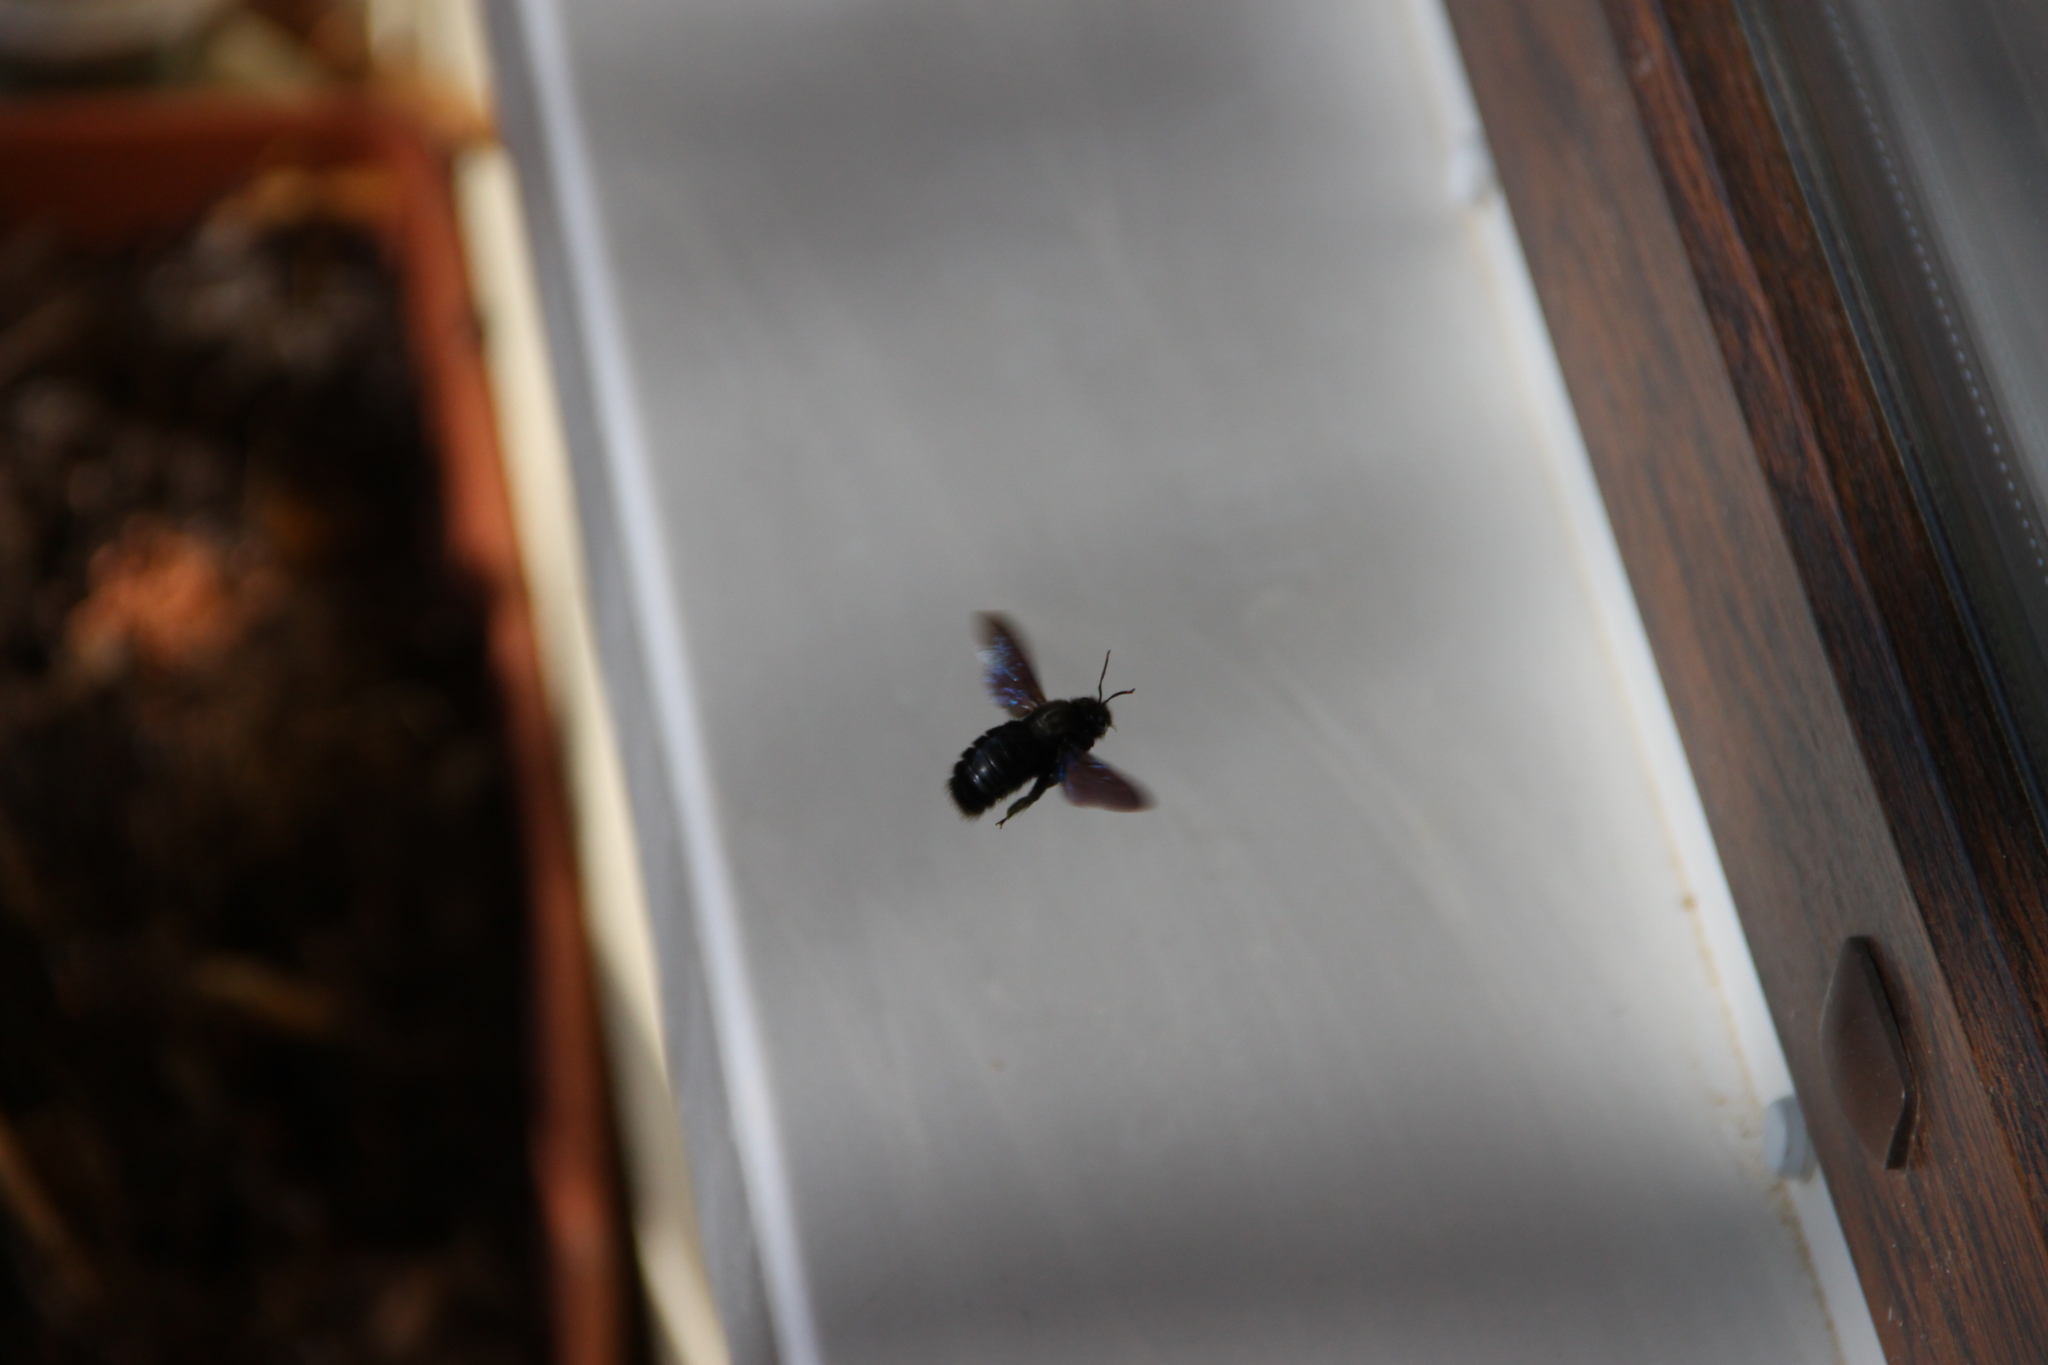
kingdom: Animalia
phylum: Arthropoda
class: Insecta
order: Hymenoptera
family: Apidae
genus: Xylocopa
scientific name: Xylocopa violacea
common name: Violet carpenter bee
